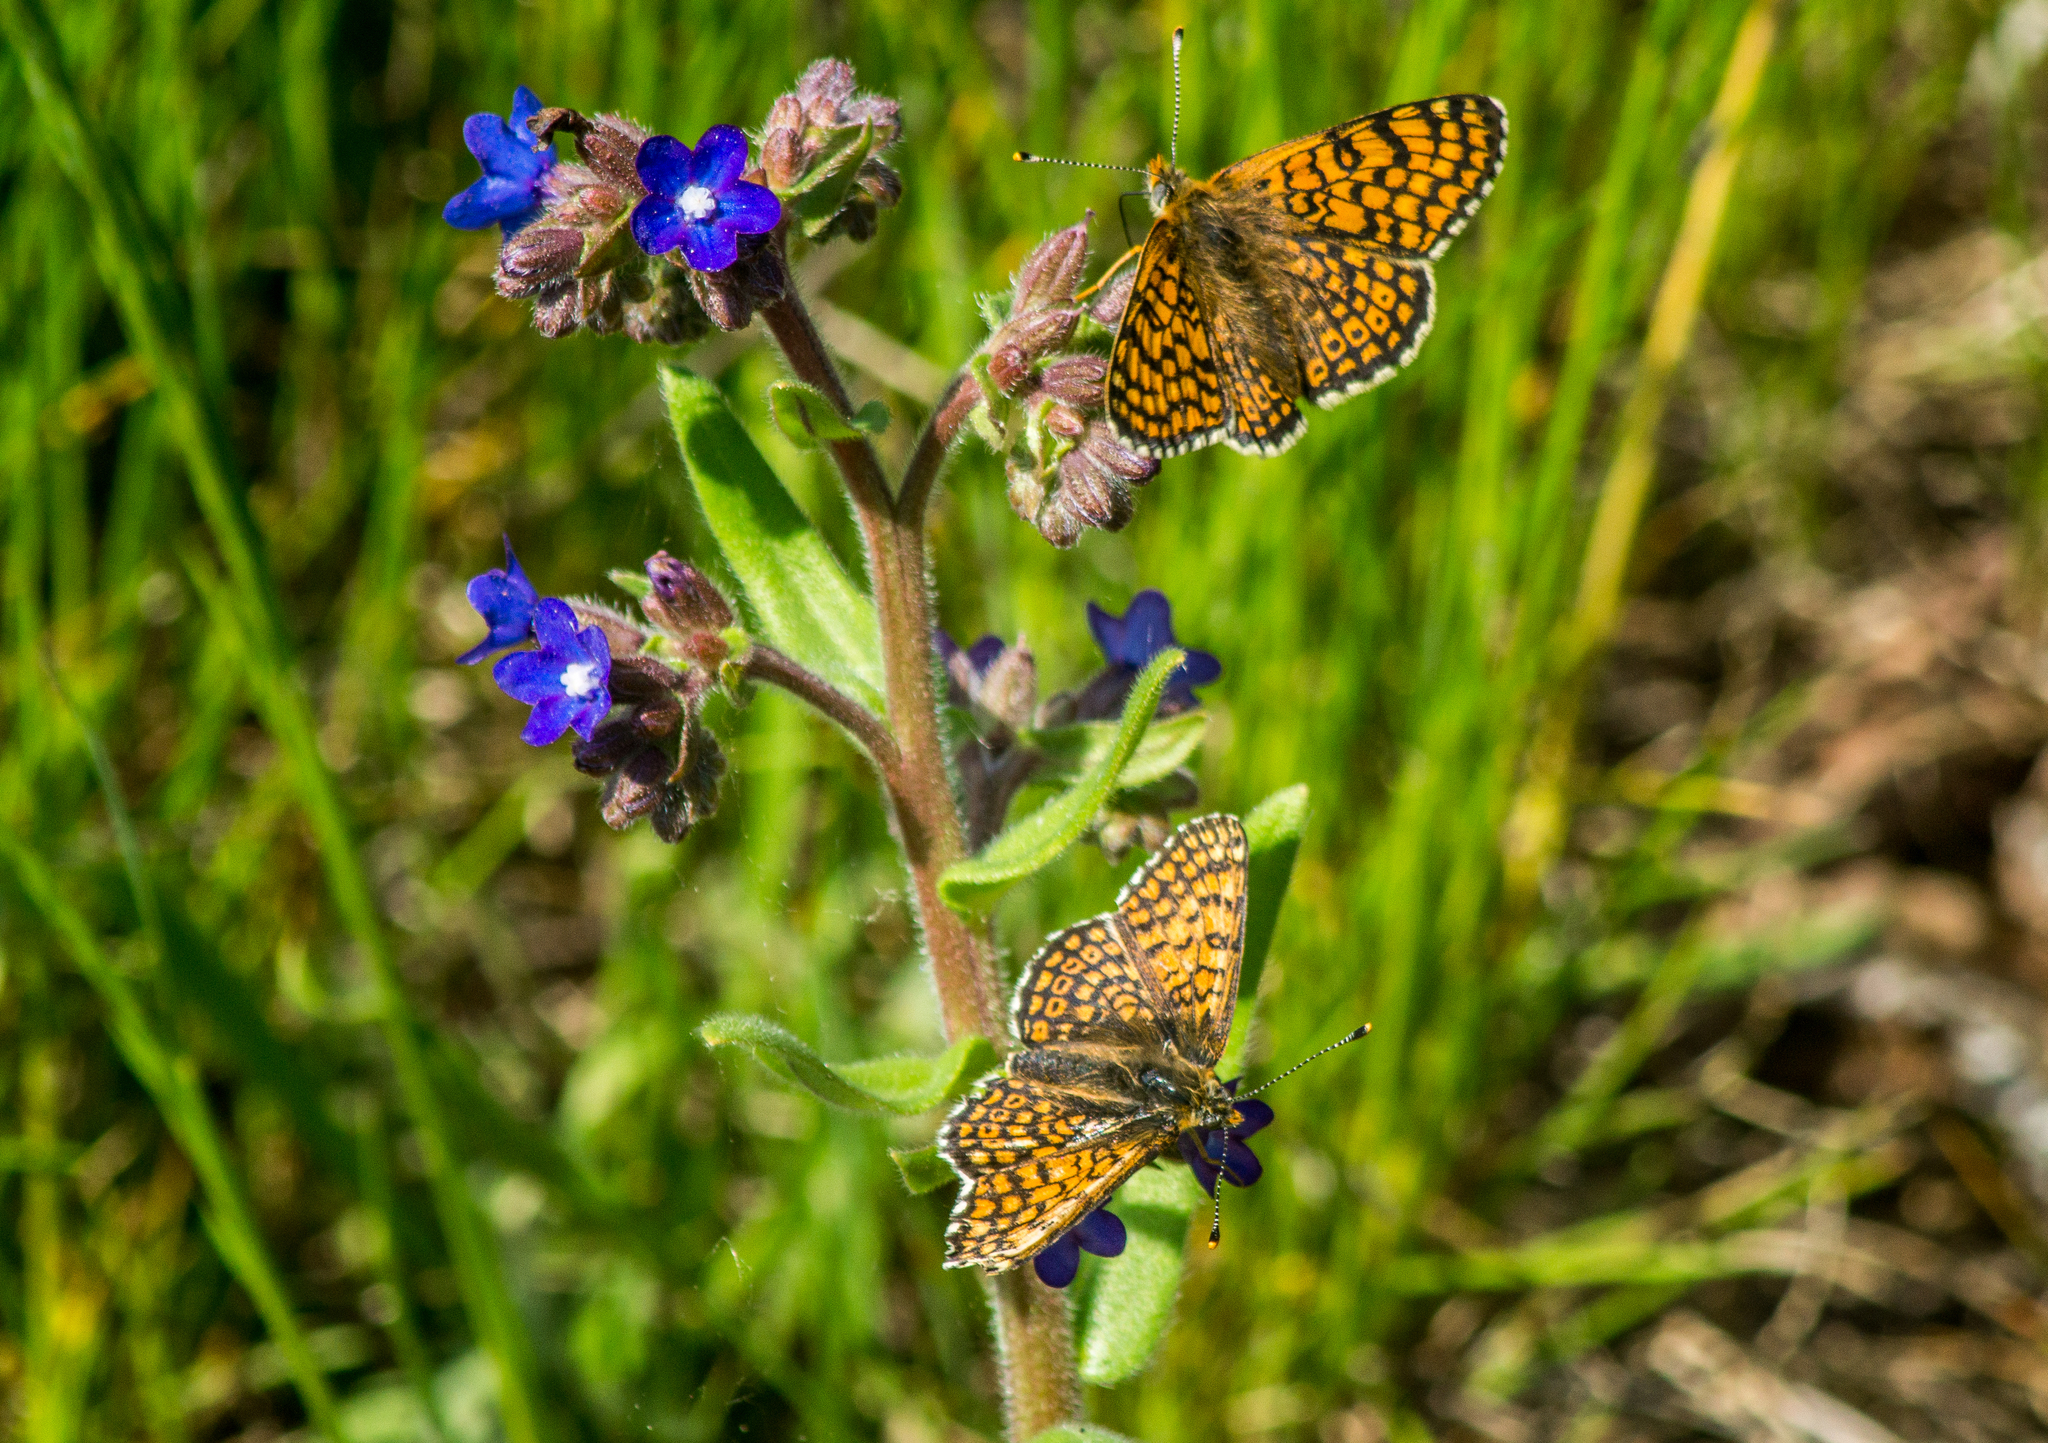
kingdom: Animalia
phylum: Arthropoda
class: Insecta
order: Lepidoptera
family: Nymphalidae
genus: Melitaea
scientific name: Melitaea cinxia
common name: Glanville fritillary
